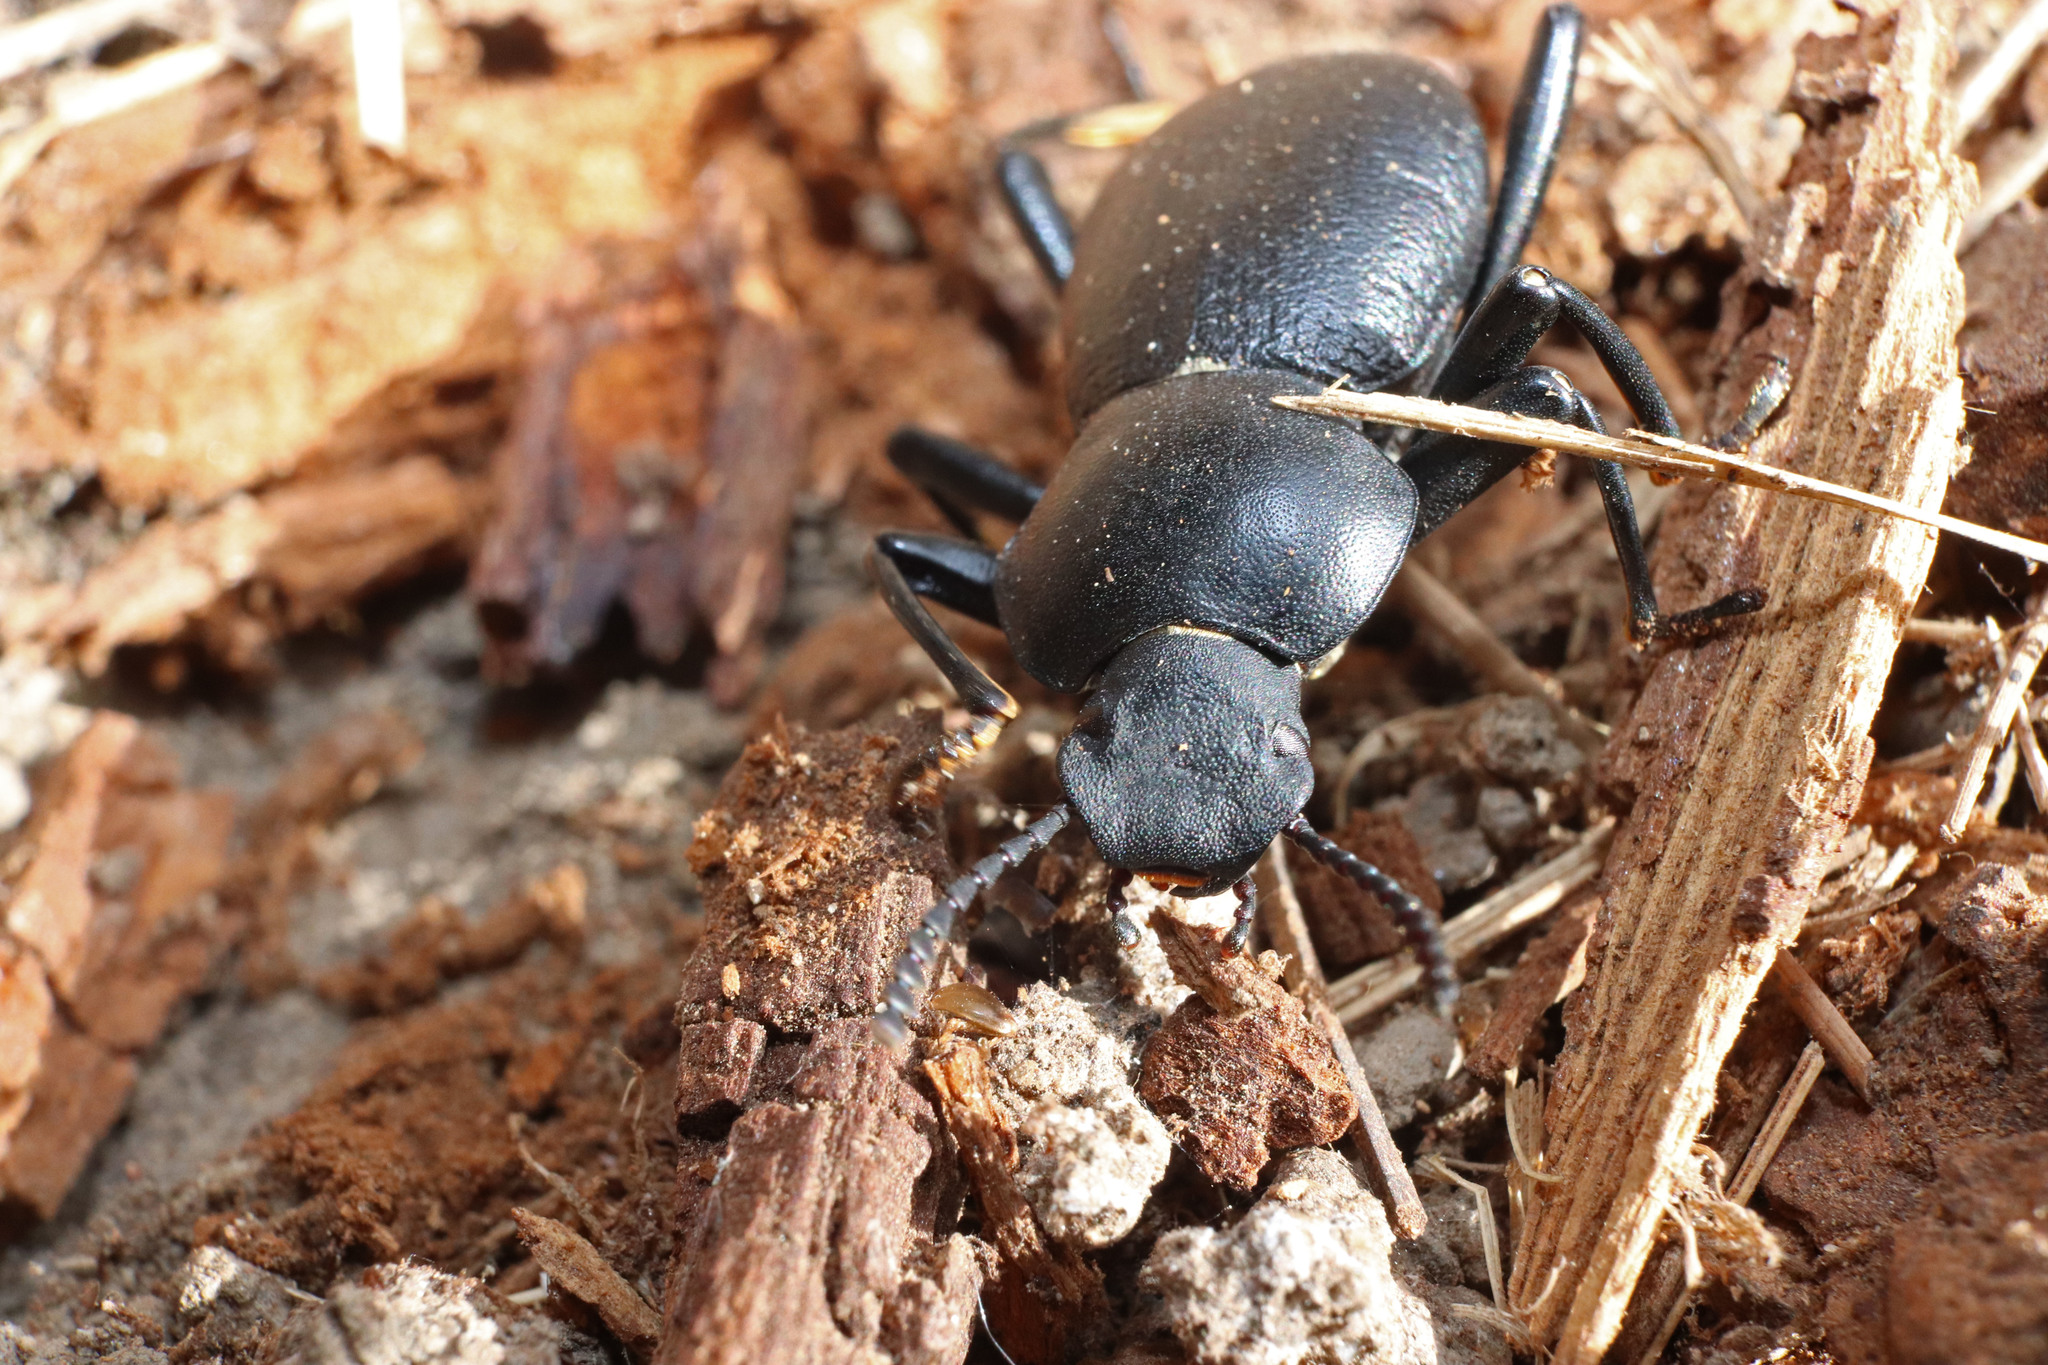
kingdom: Animalia
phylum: Arthropoda
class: Insecta
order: Coleoptera
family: Tenebrionidae
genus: Coelocnemis
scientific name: Coelocnemis dilaticollis
